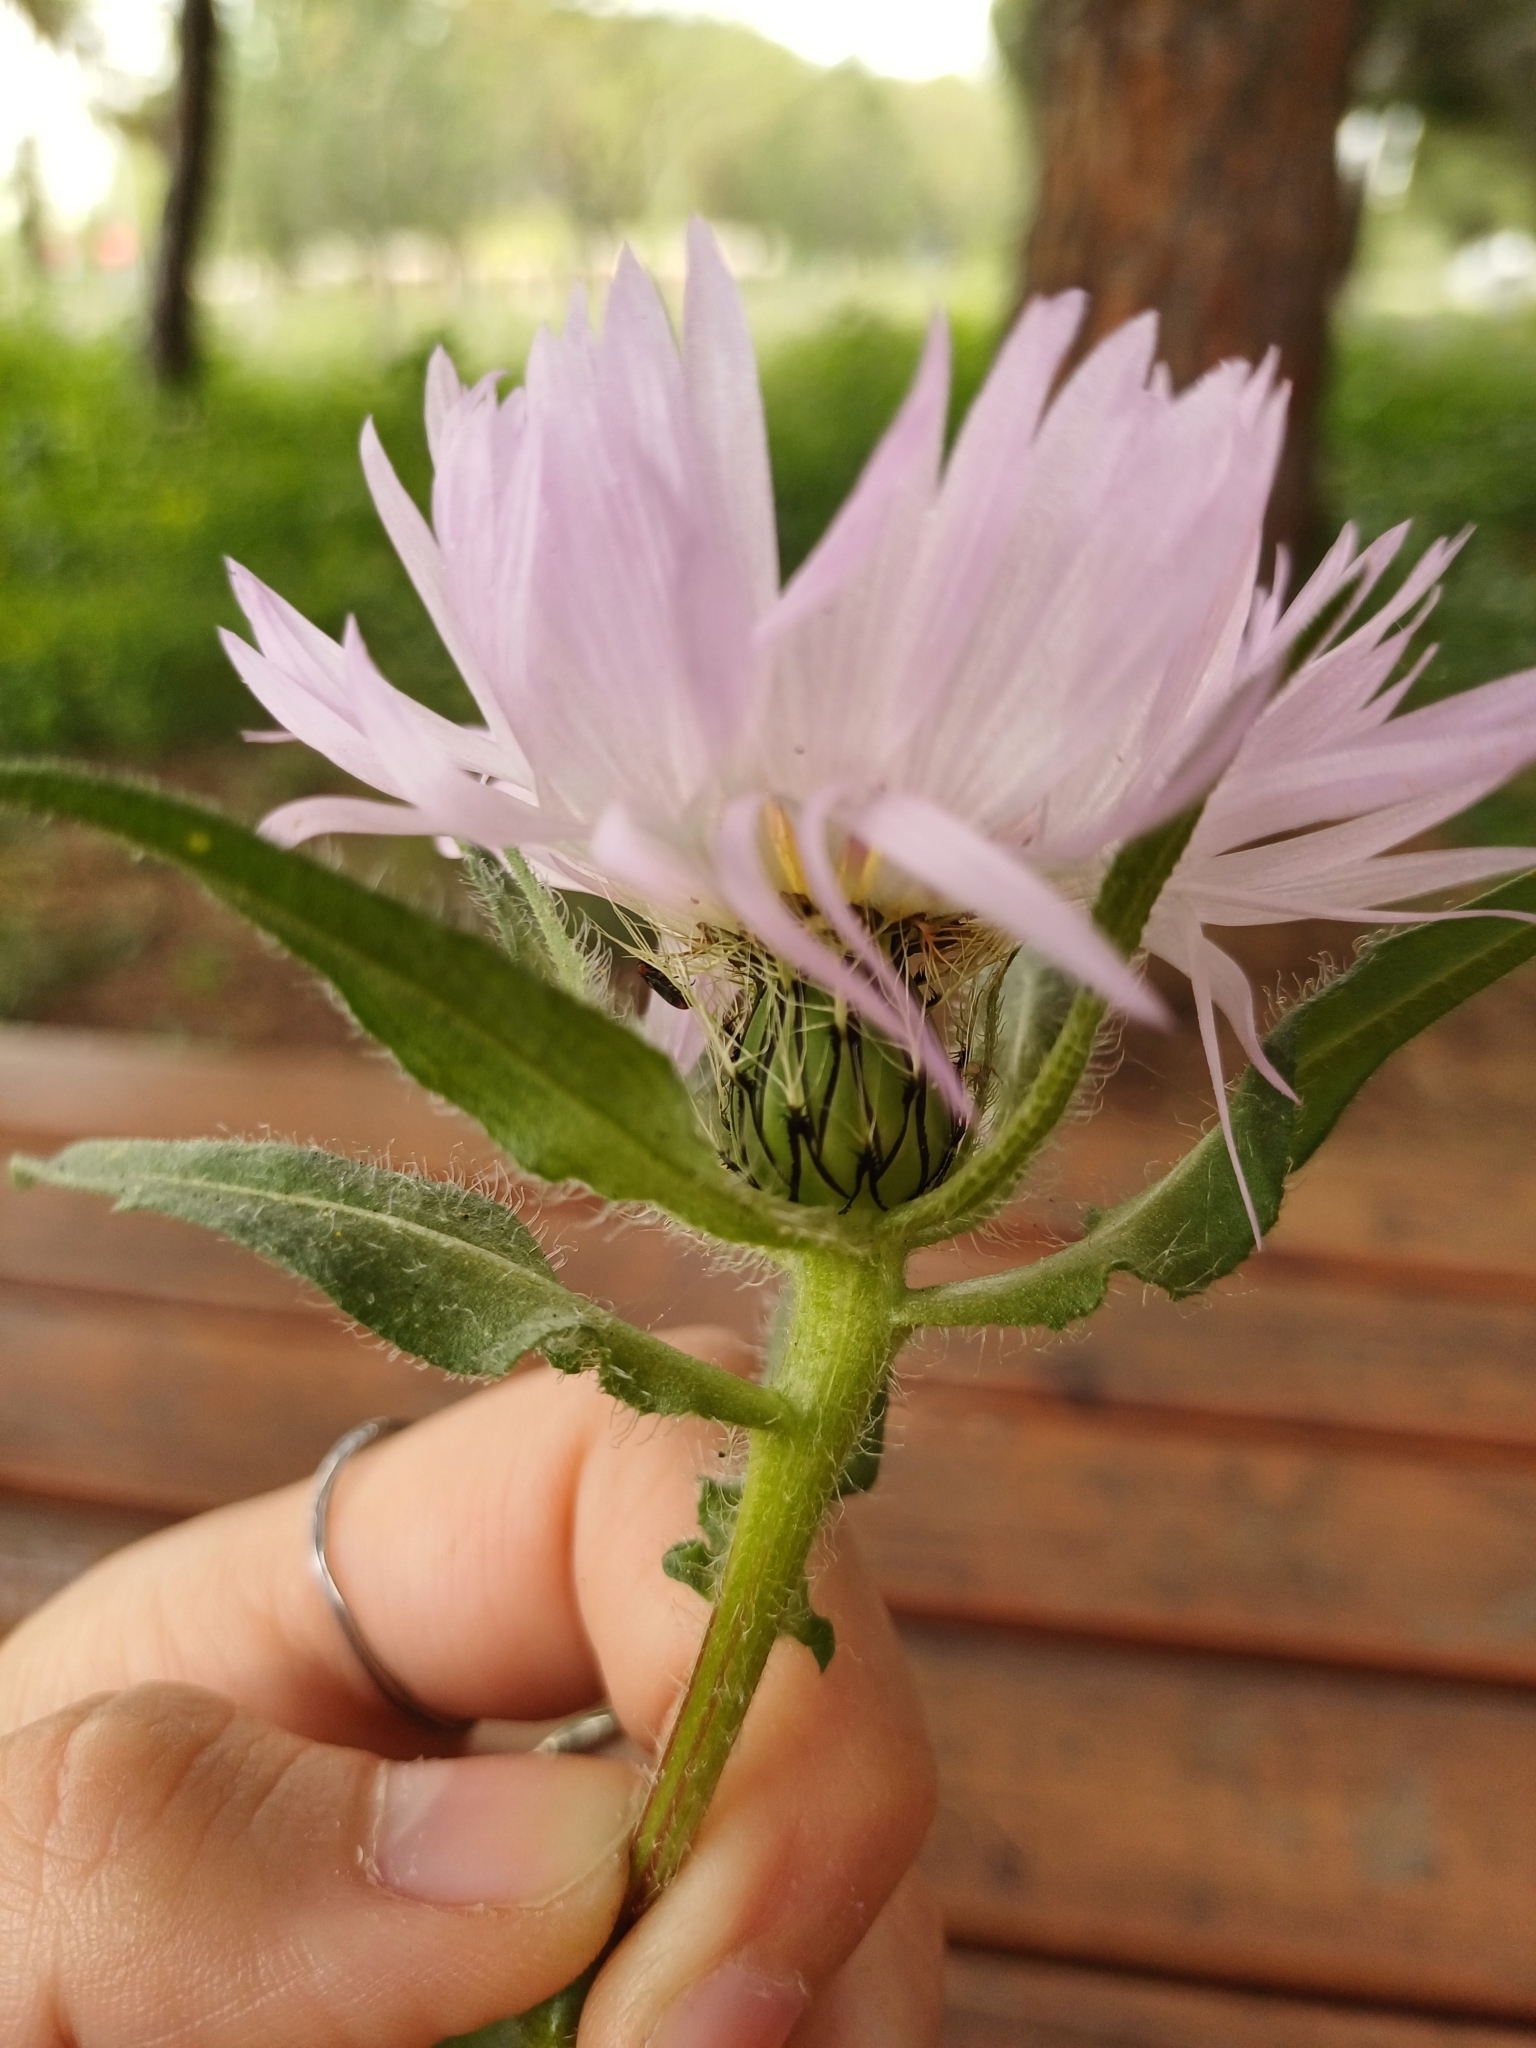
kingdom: Plantae
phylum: Tracheophyta
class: Magnoliopsida
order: Asterales
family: Asteraceae
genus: Centaurea
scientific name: Centaurea pullata
